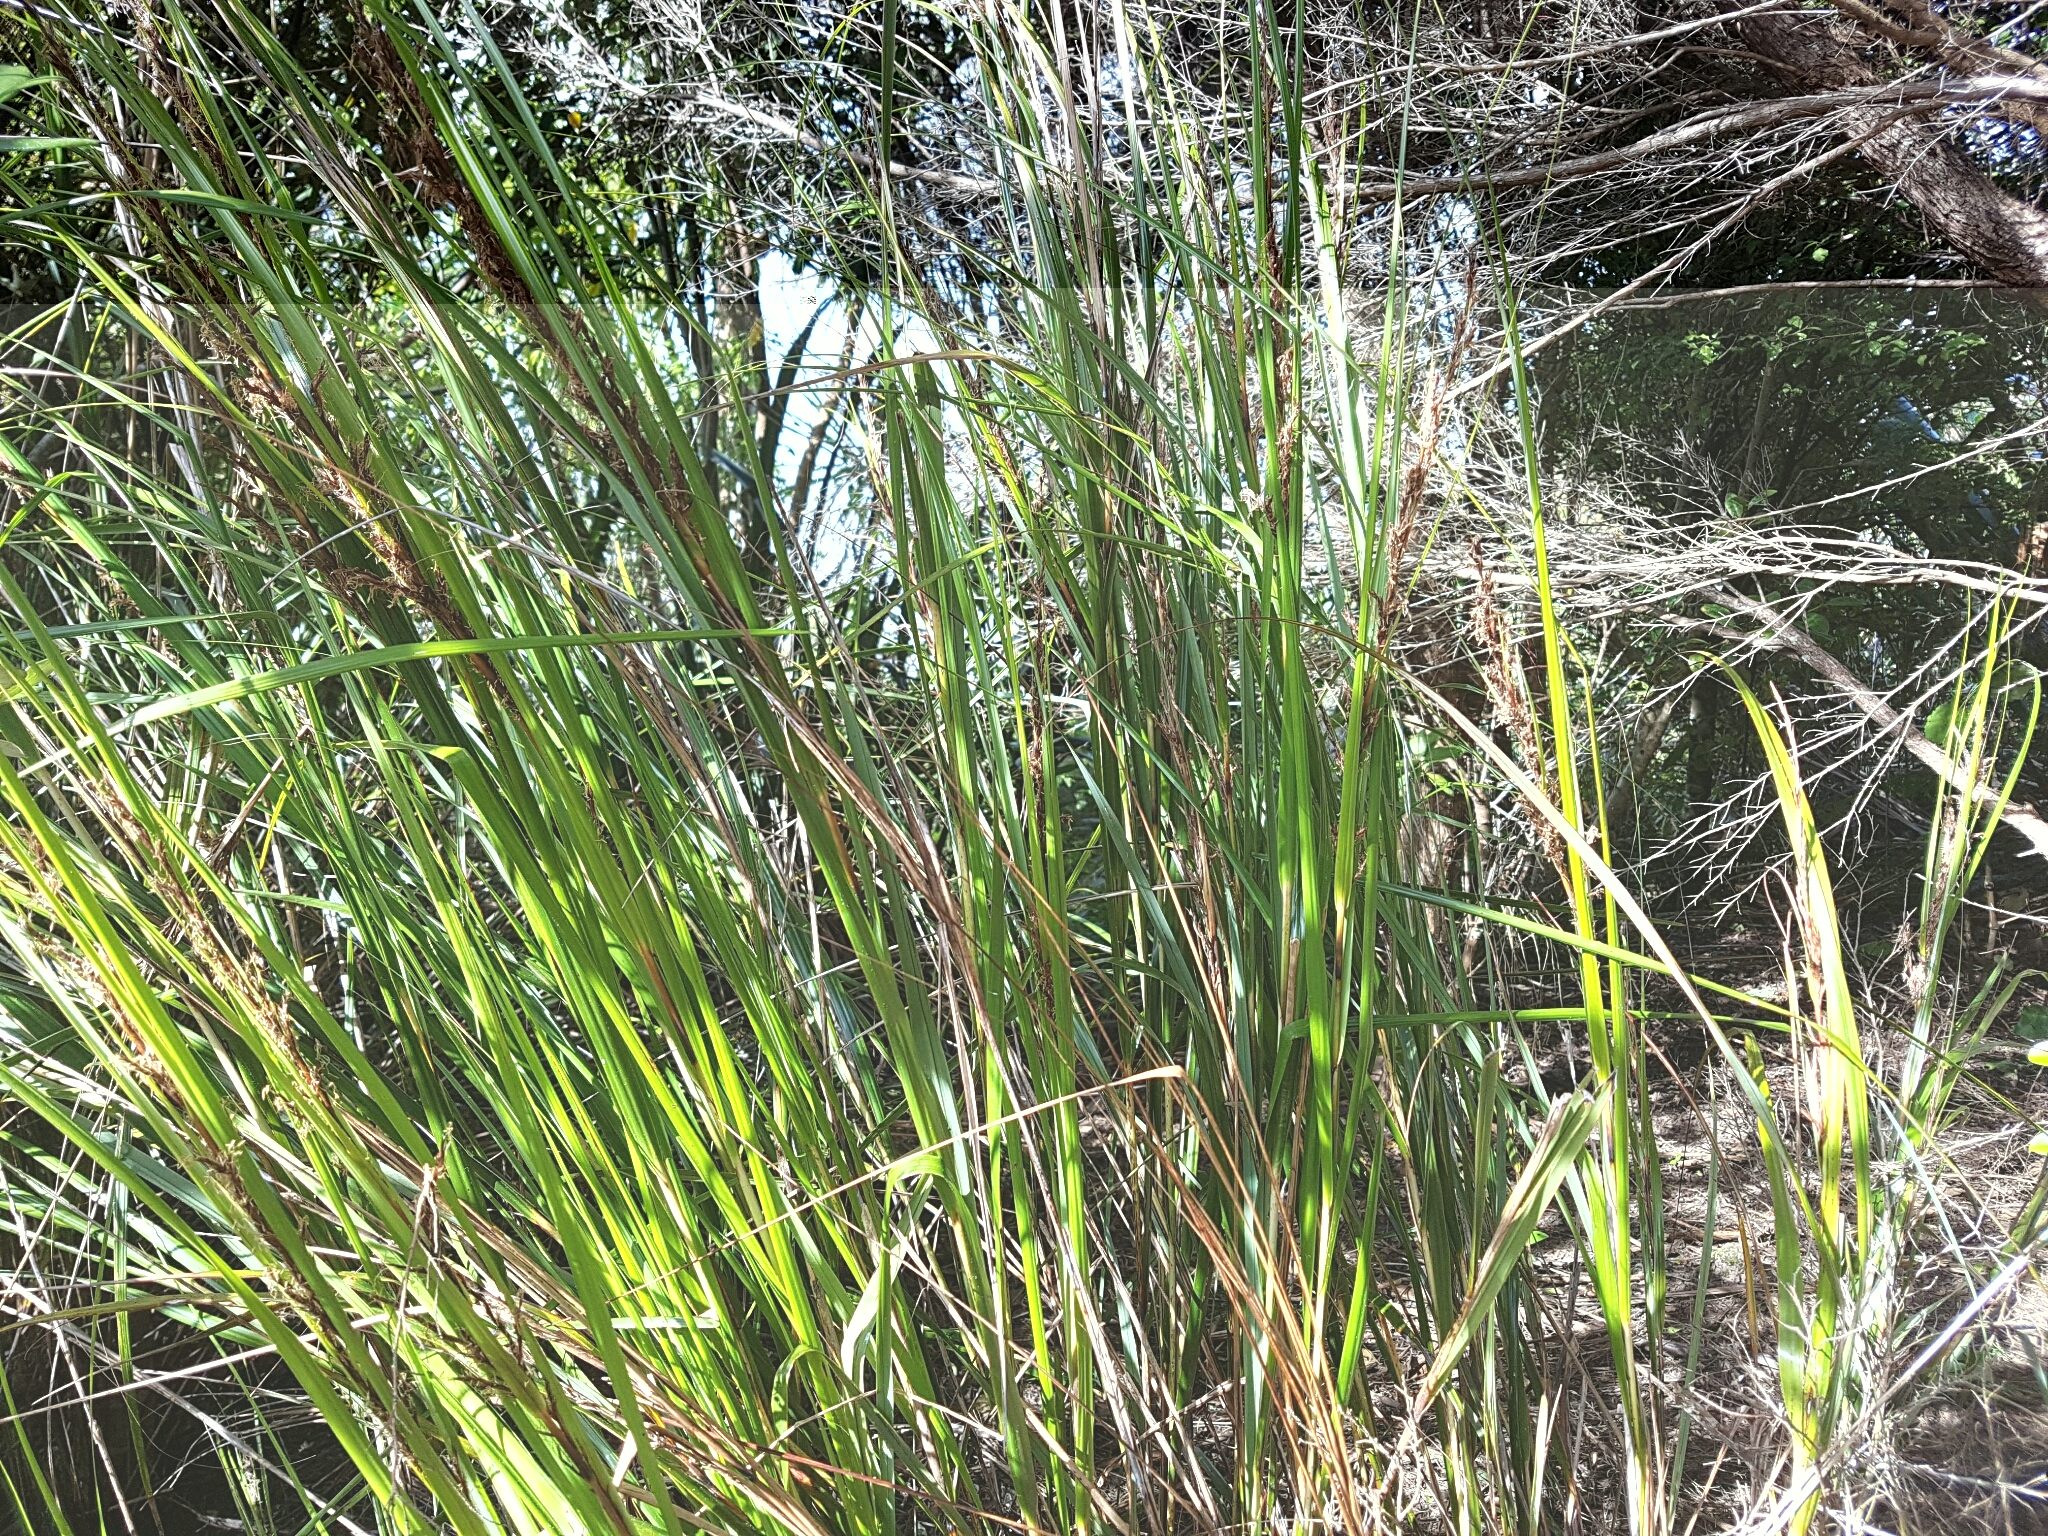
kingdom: Plantae
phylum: Tracheophyta
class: Liliopsida
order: Poales
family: Cyperaceae
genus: Gahnia
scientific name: Gahnia lacera
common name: Sawsedge
